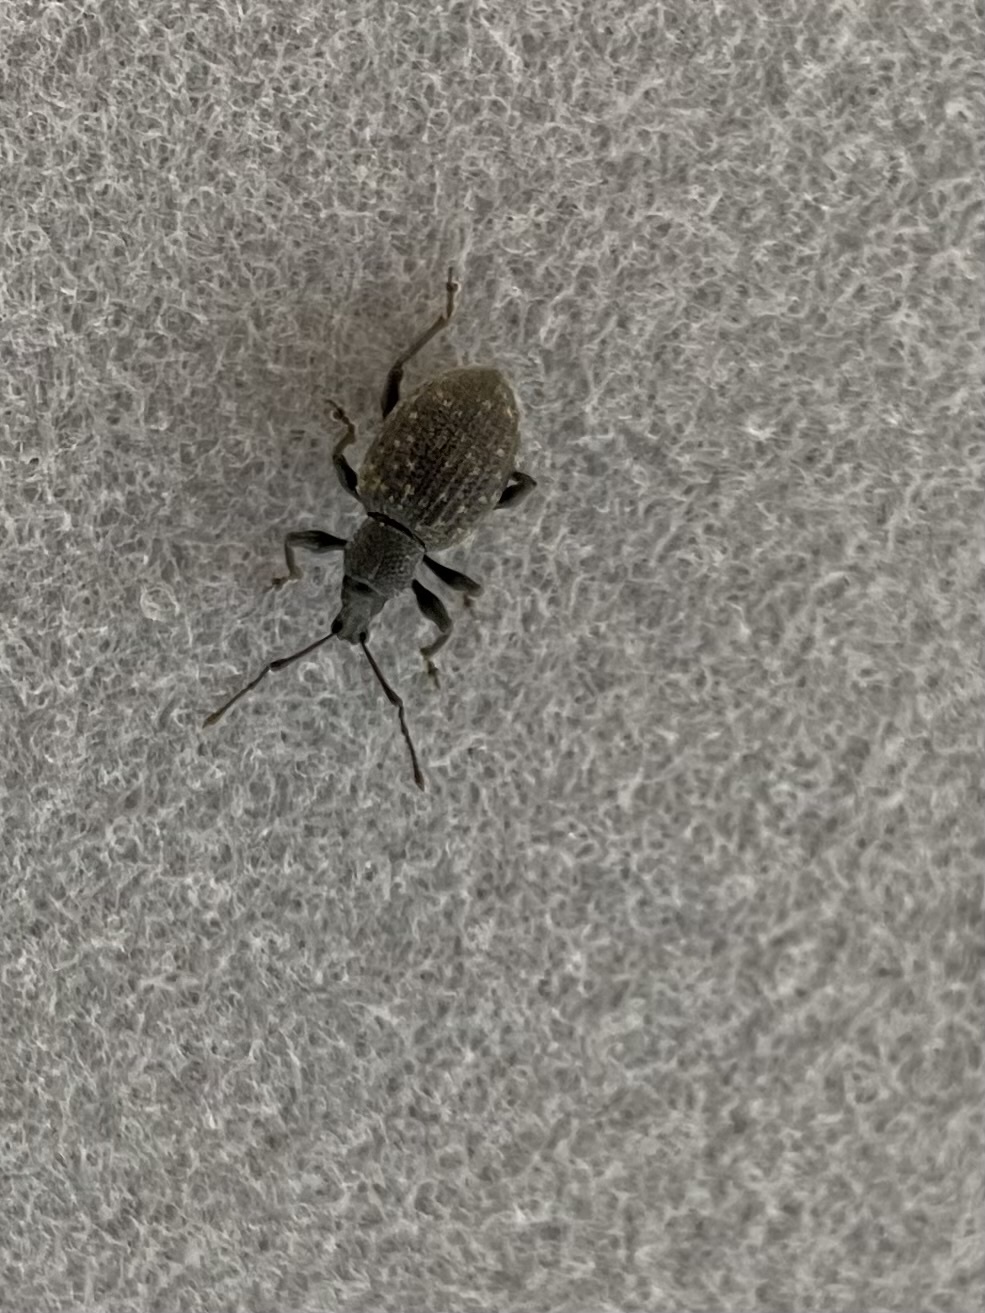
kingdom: Animalia
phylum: Arthropoda
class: Insecta
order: Coleoptera
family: Curculionidae
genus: Otiorhynchus
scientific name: Otiorhynchus sulcatus
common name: Black vine weevil
